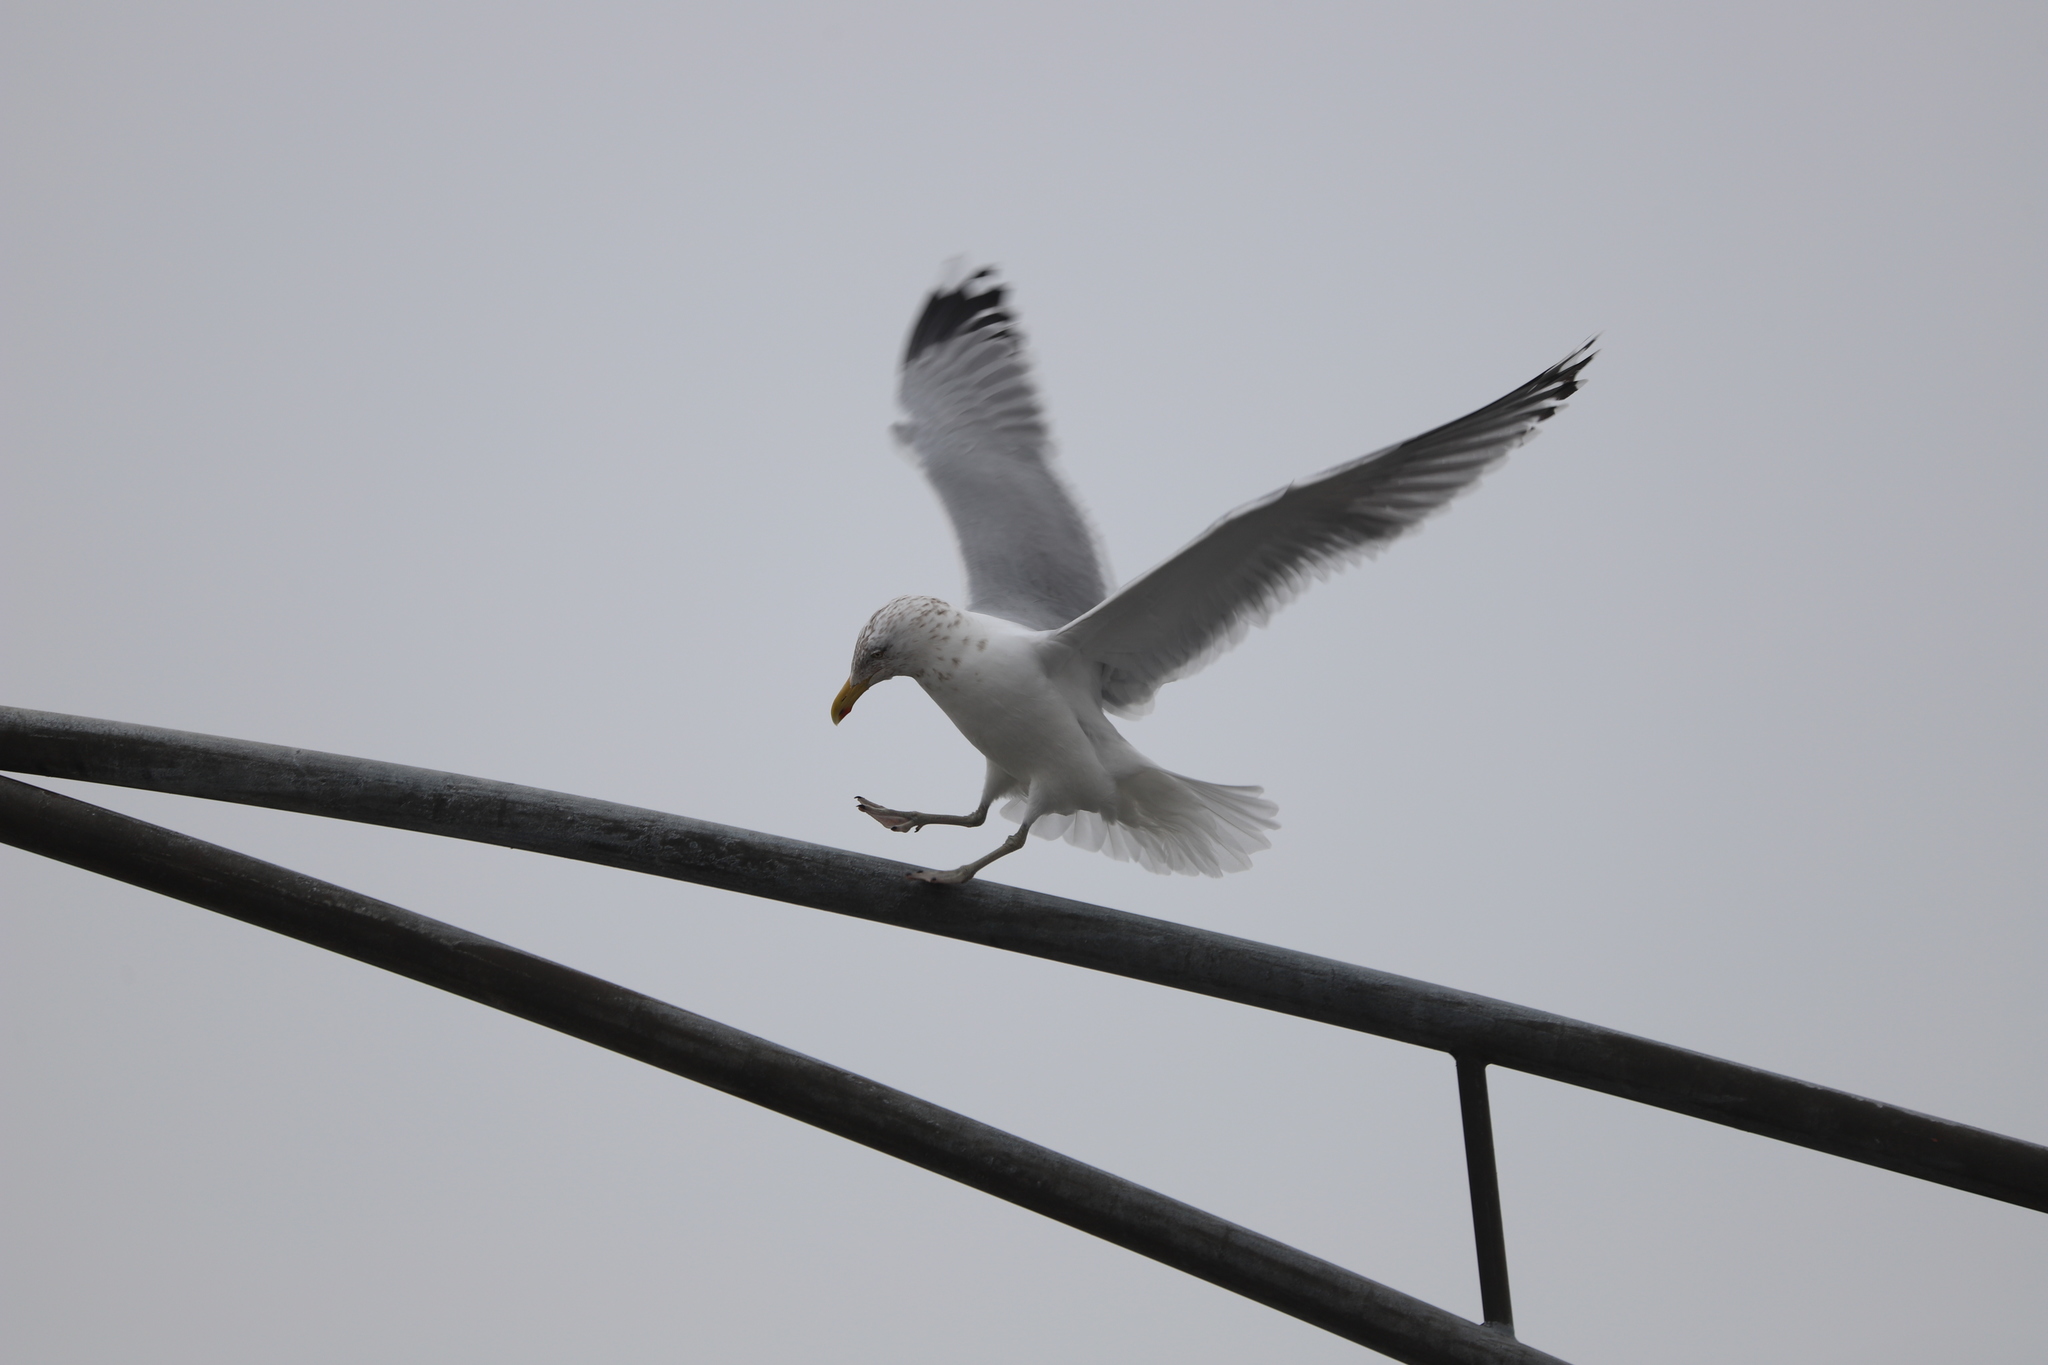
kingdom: Animalia
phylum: Chordata
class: Aves
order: Charadriiformes
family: Laridae
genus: Larus
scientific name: Larus argentatus
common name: Herring gull
